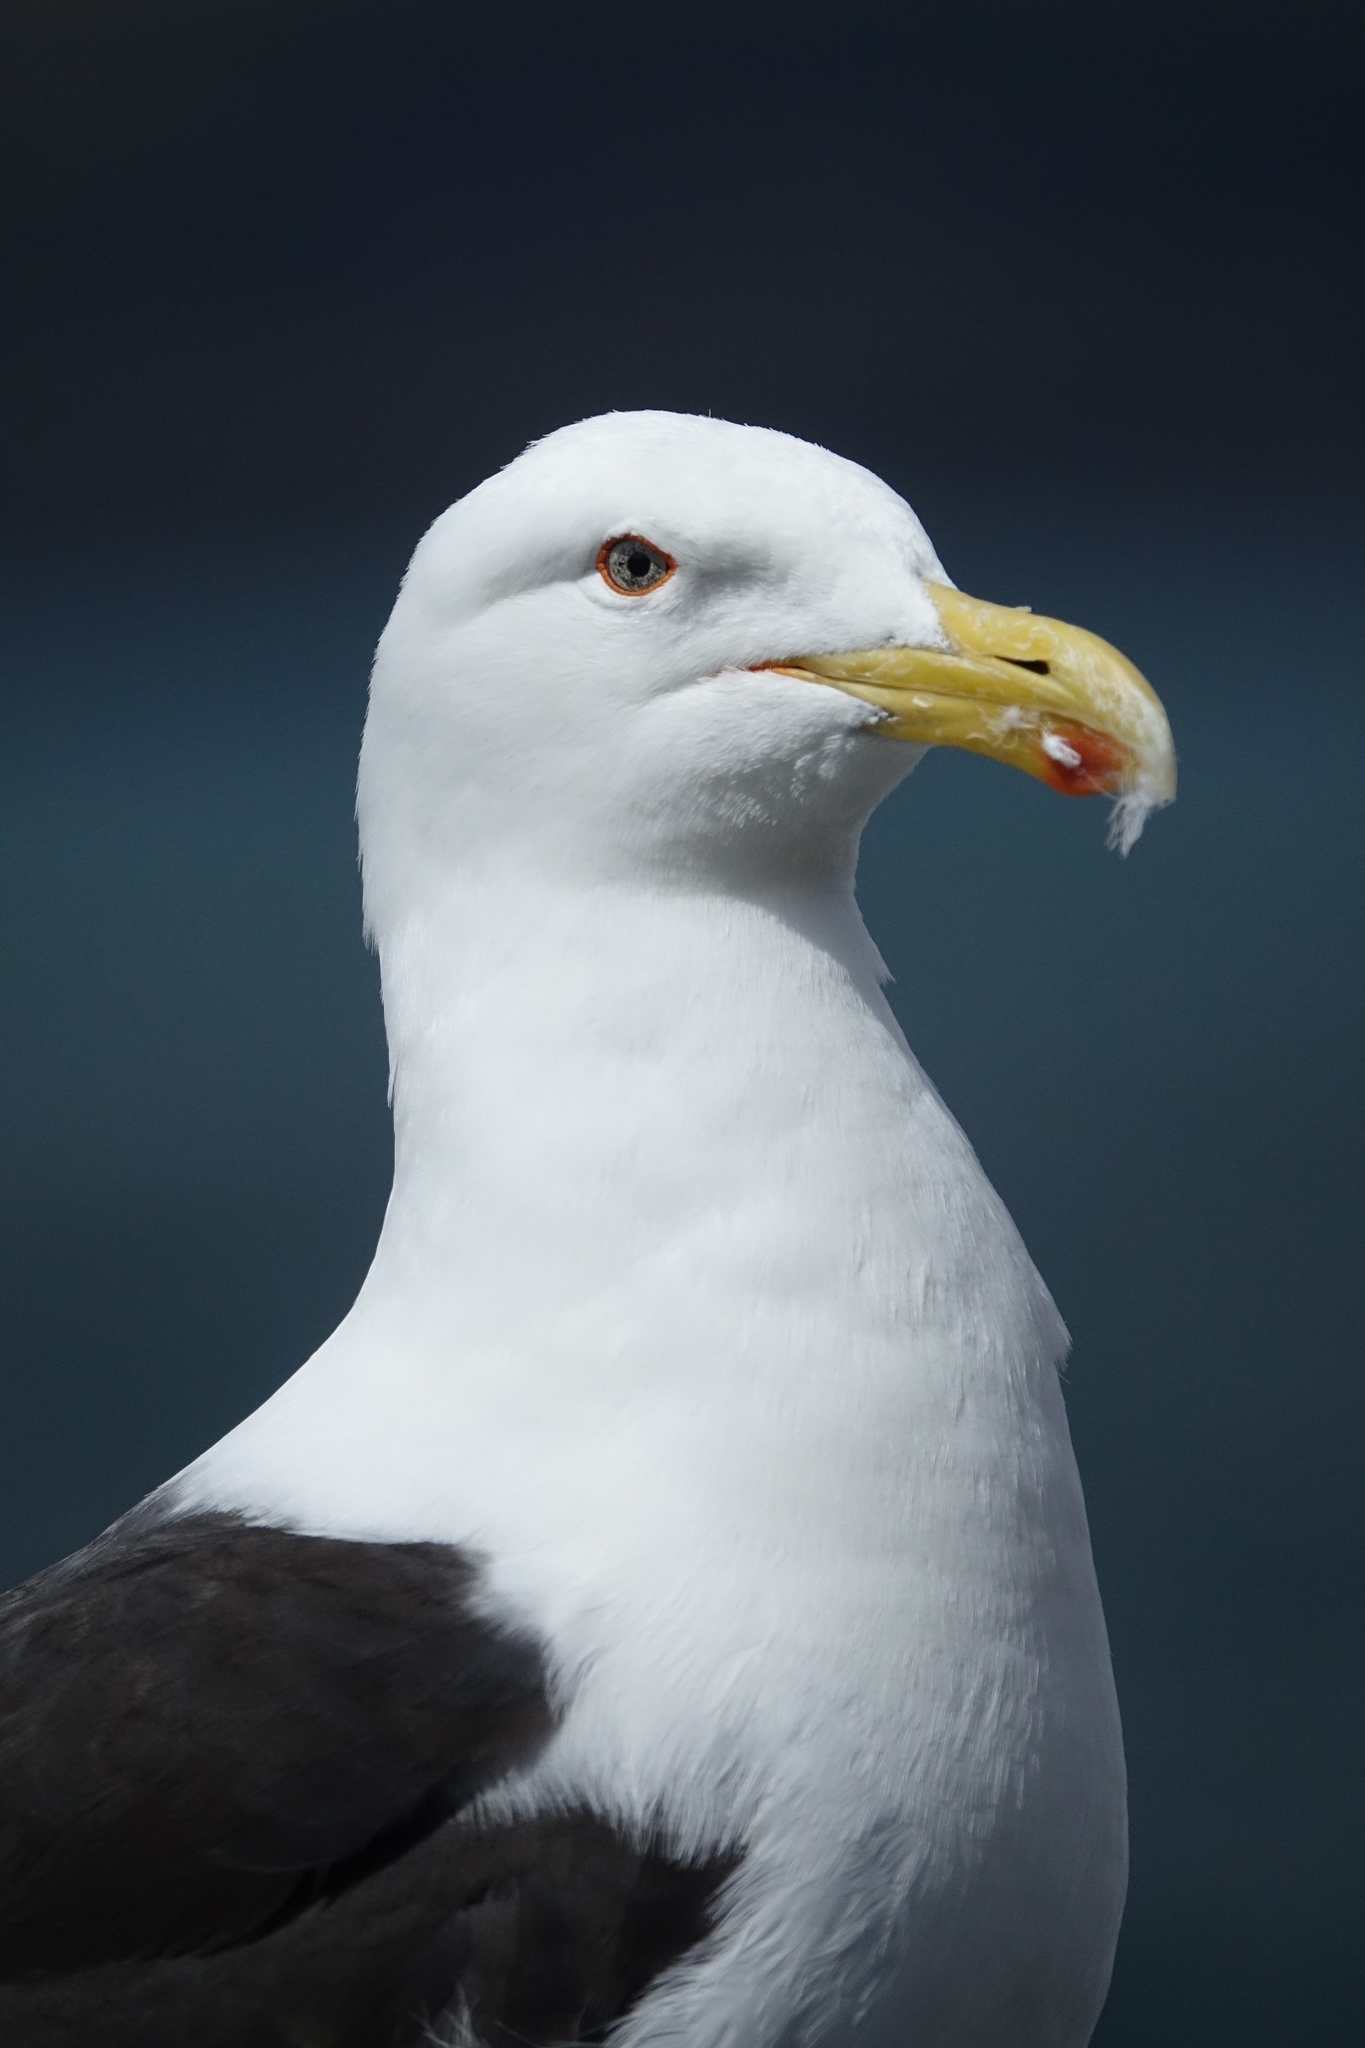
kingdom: Animalia
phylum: Chordata
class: Aves
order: Charadriiformes
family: Laridae
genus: Larus
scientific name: Larus dominicanus
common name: Kelp gull
